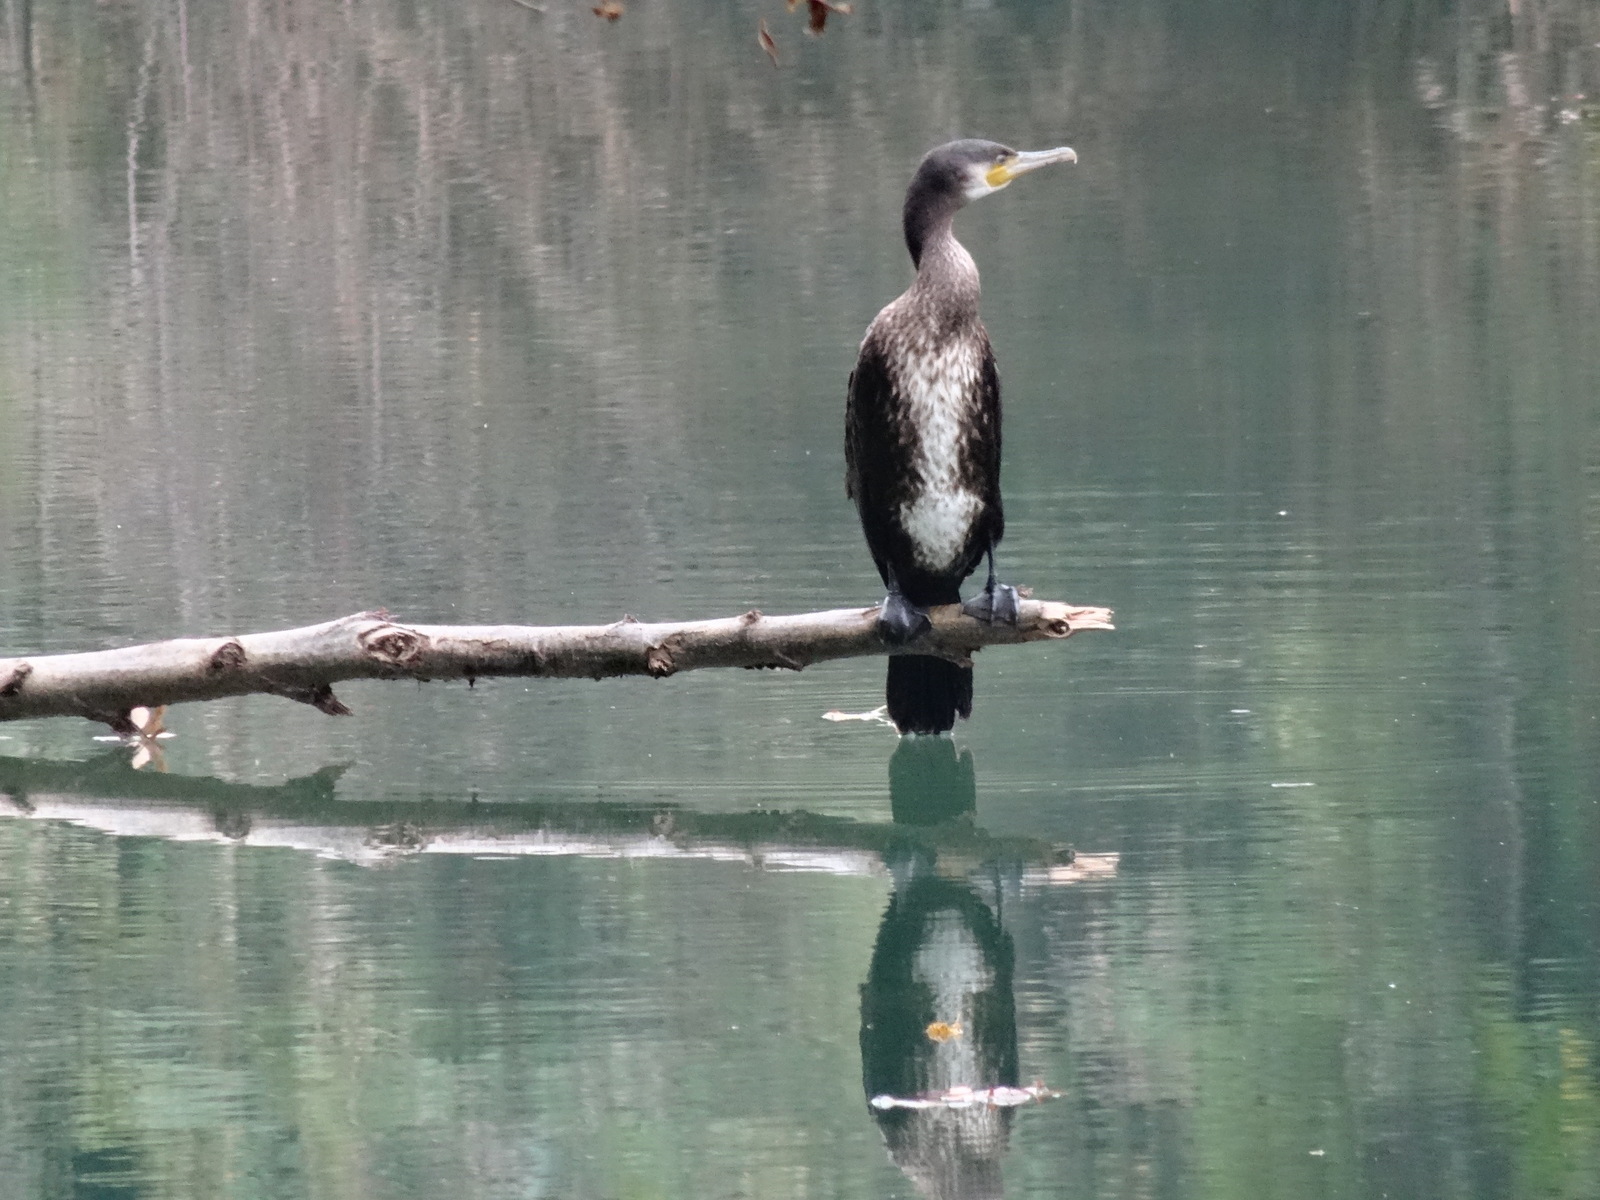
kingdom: Animalia
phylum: Chordata
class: Aves
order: Suliformes
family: Phalacrocoracidae
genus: Phalacrocorax
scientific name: Phalacrocorax carbo
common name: Great cormorant
